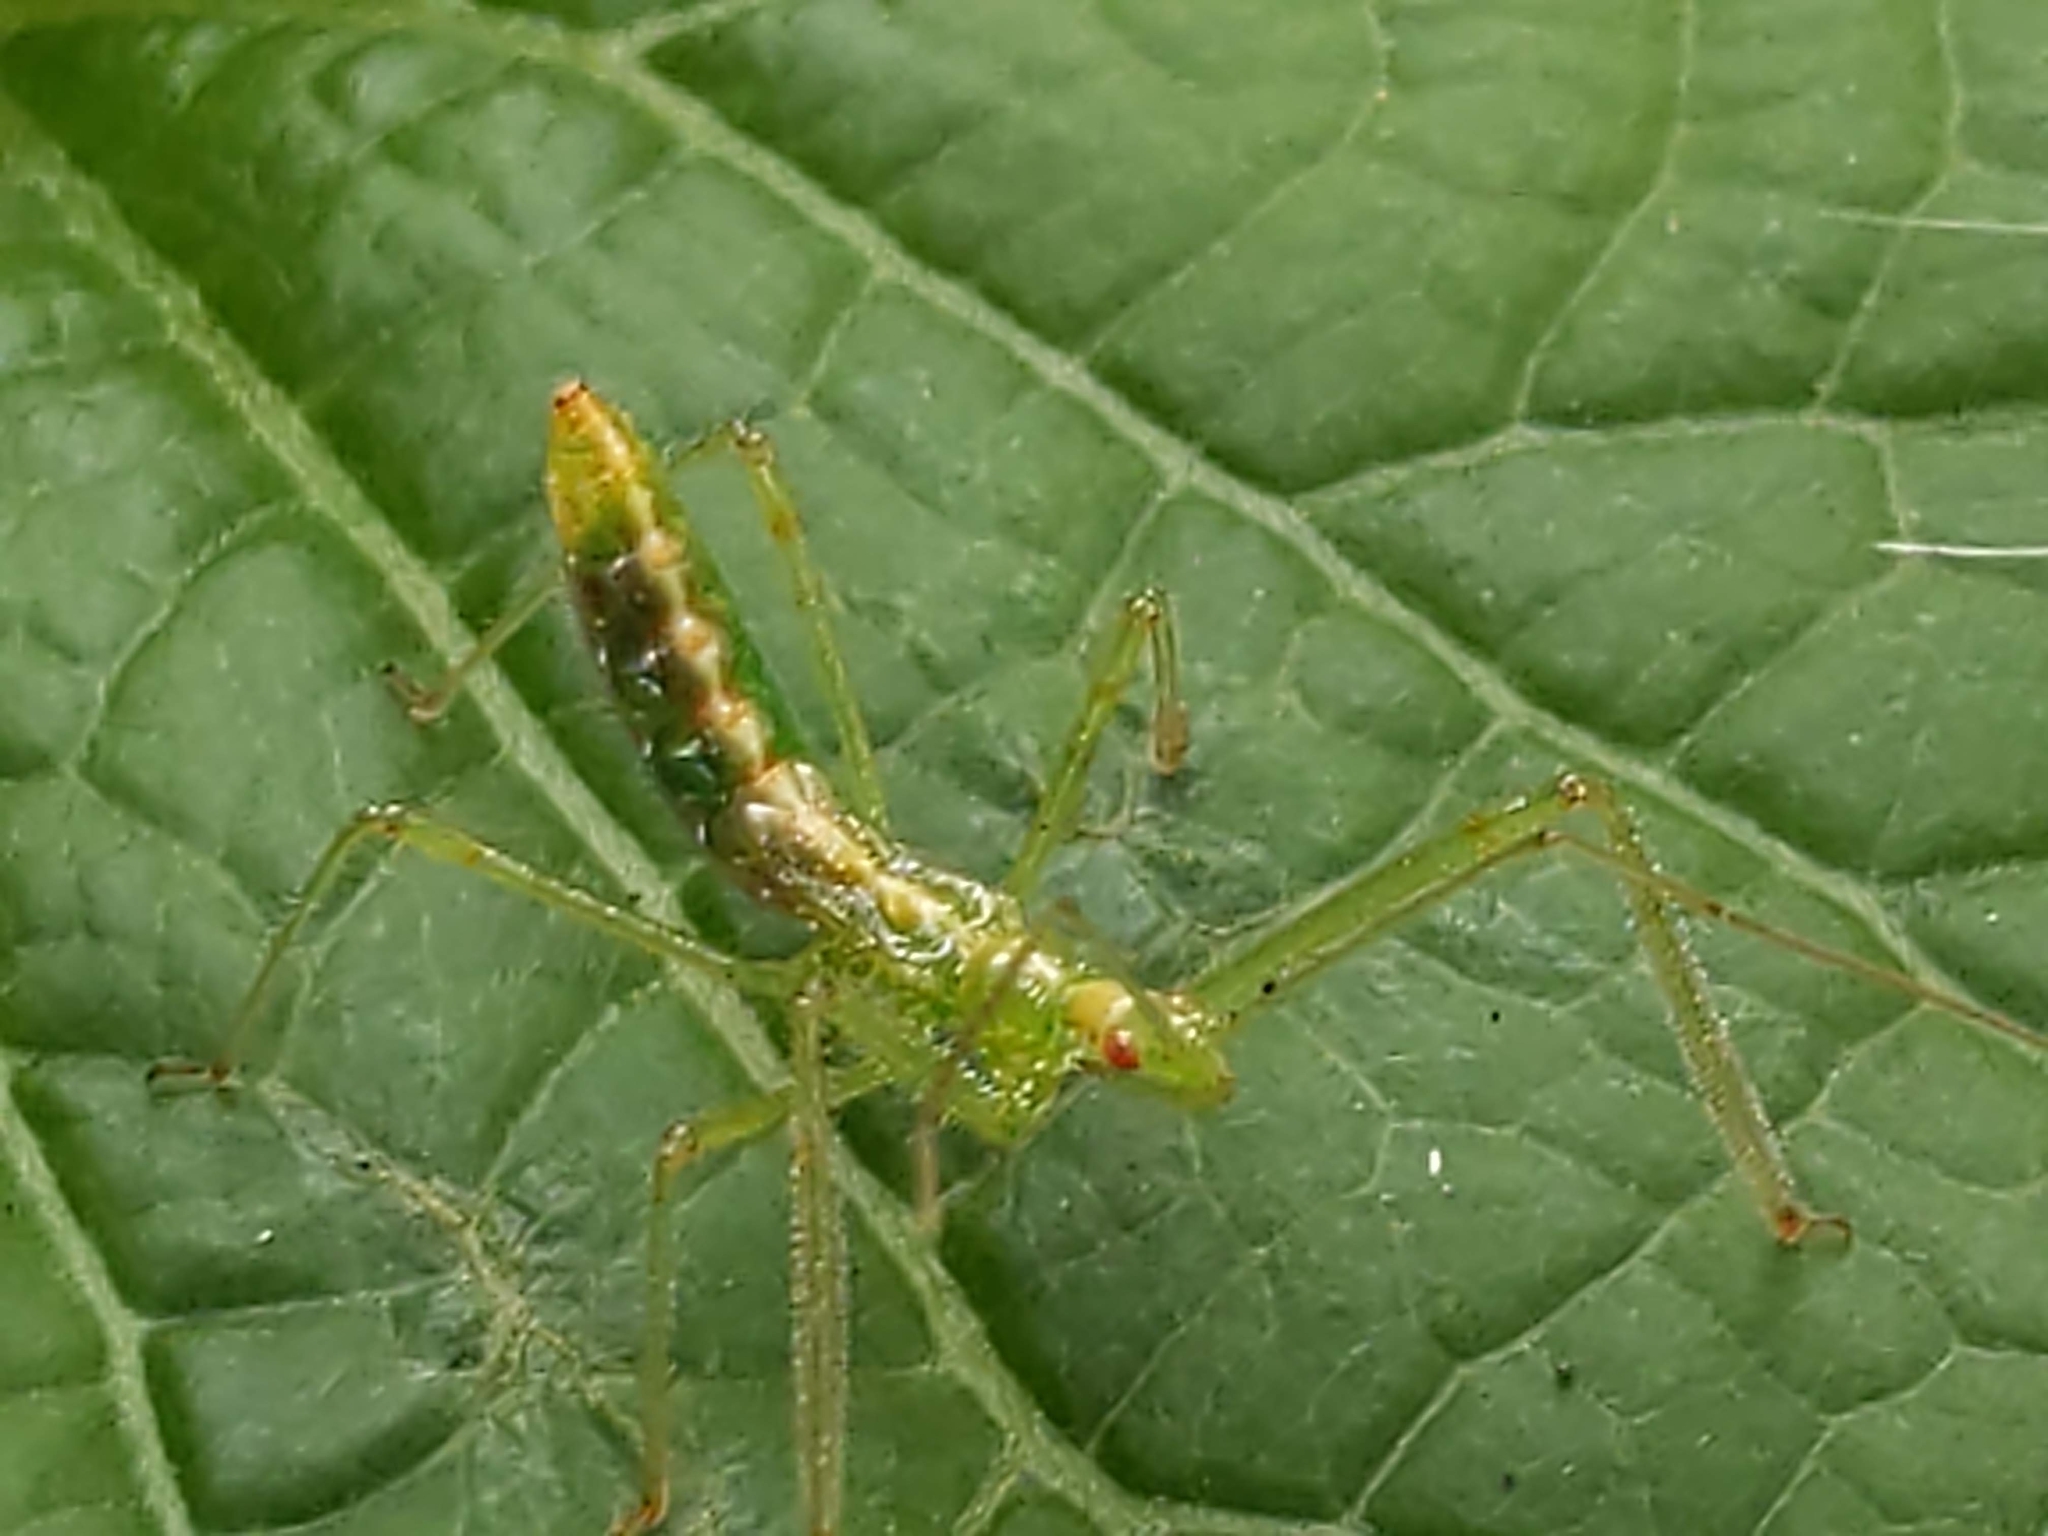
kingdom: Animalia
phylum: Arthropoda
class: Insecta
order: Hemiptera
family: Reduviidae
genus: Zelus
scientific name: Zelus luridus
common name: Pale green assassin bug
